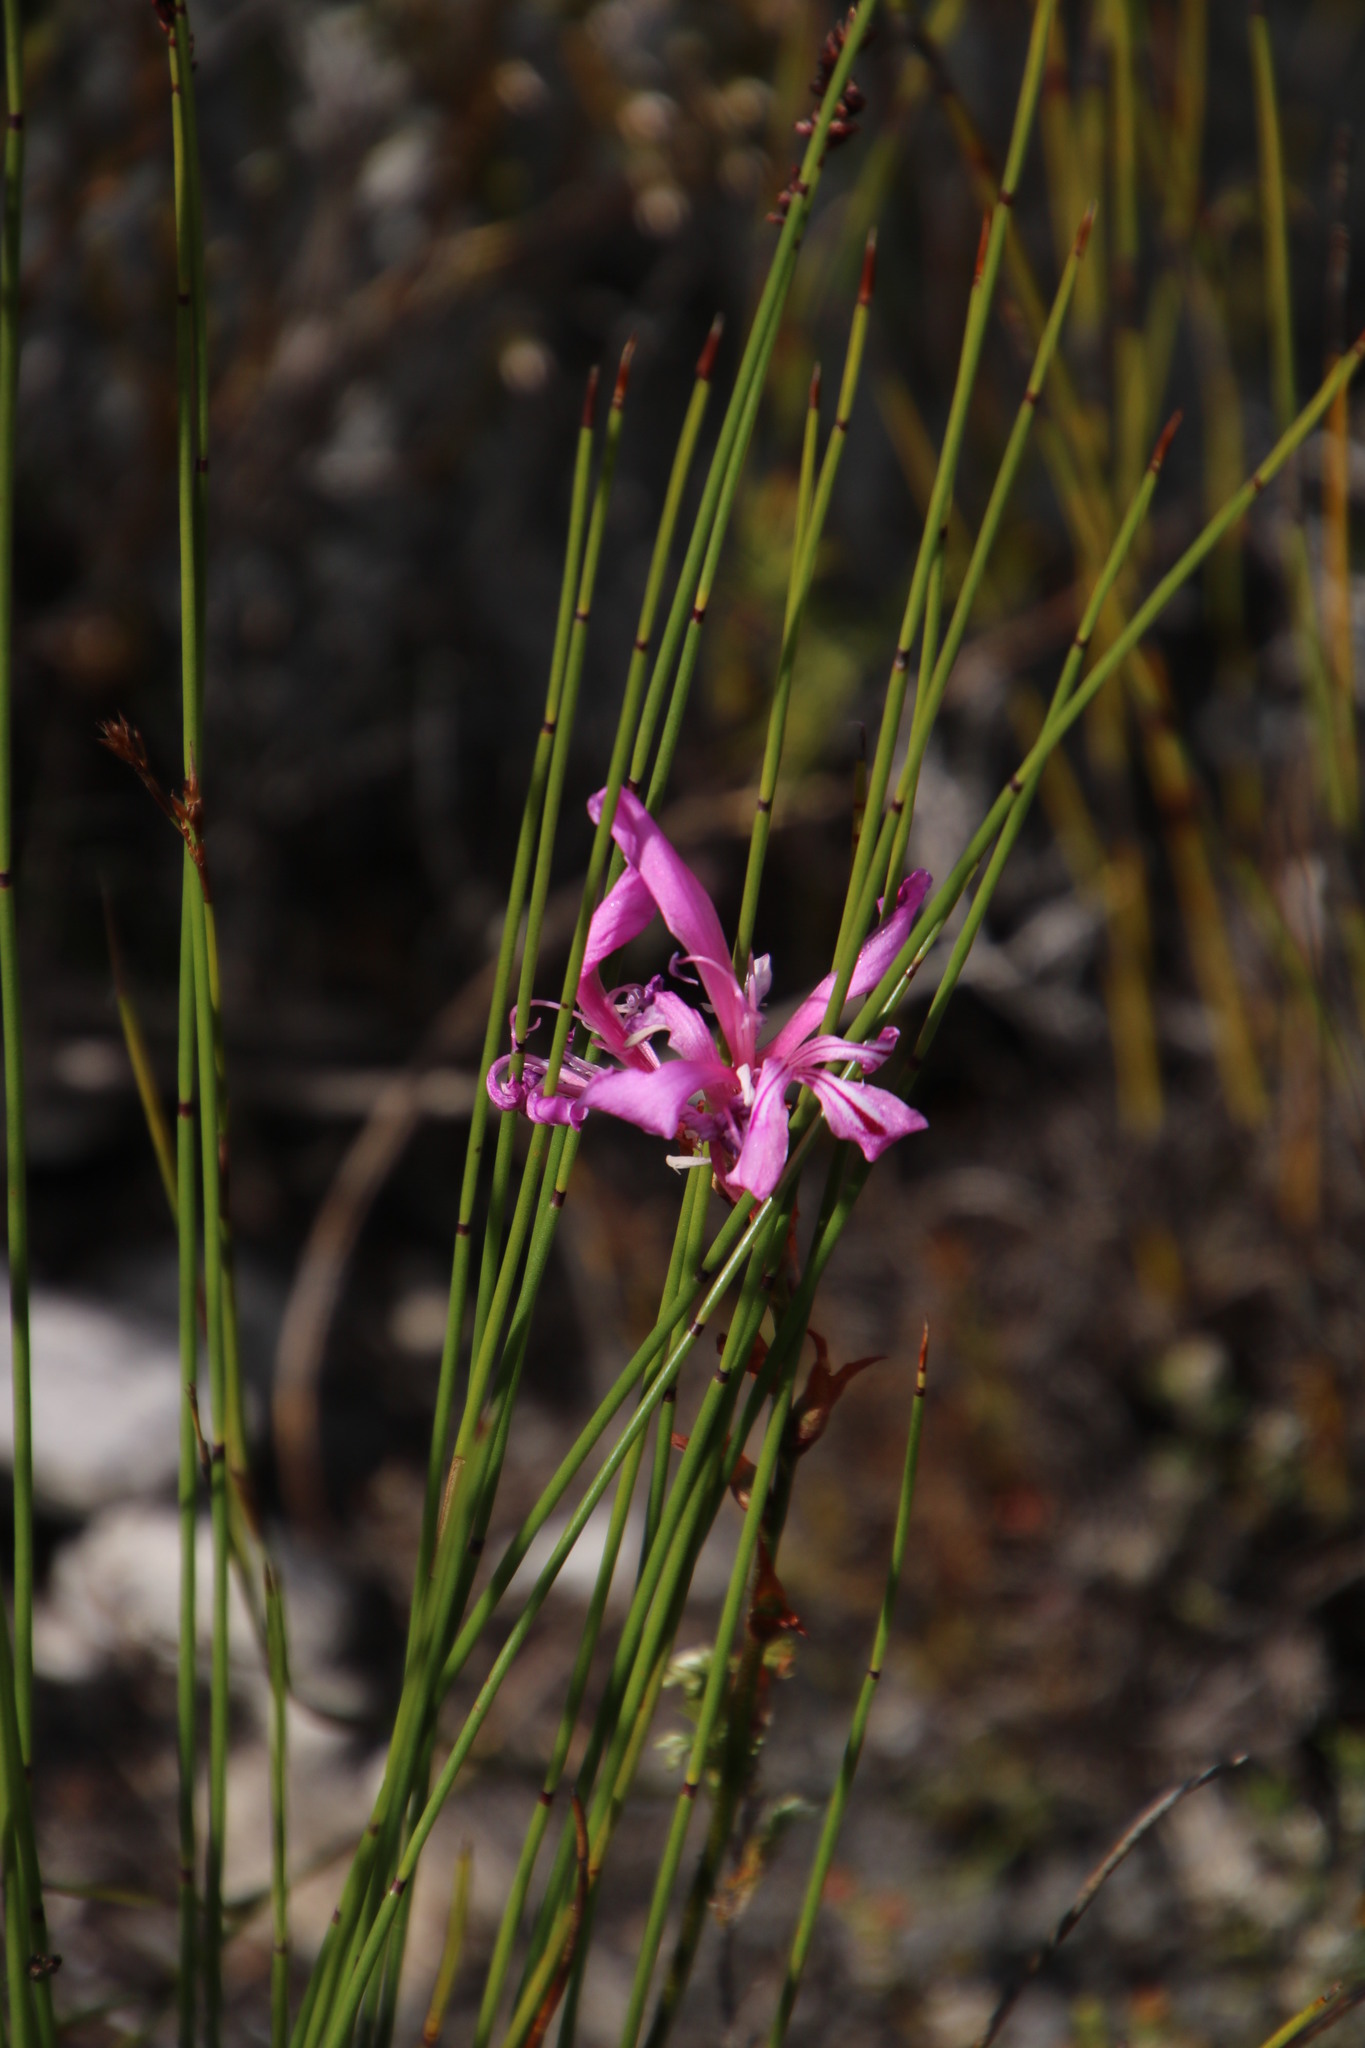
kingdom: Plantae
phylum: Tracheophyta
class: Liliopsida
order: Asparagales
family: Iridaceae
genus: Tritoniopsis
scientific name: Tritoniopsis lata
